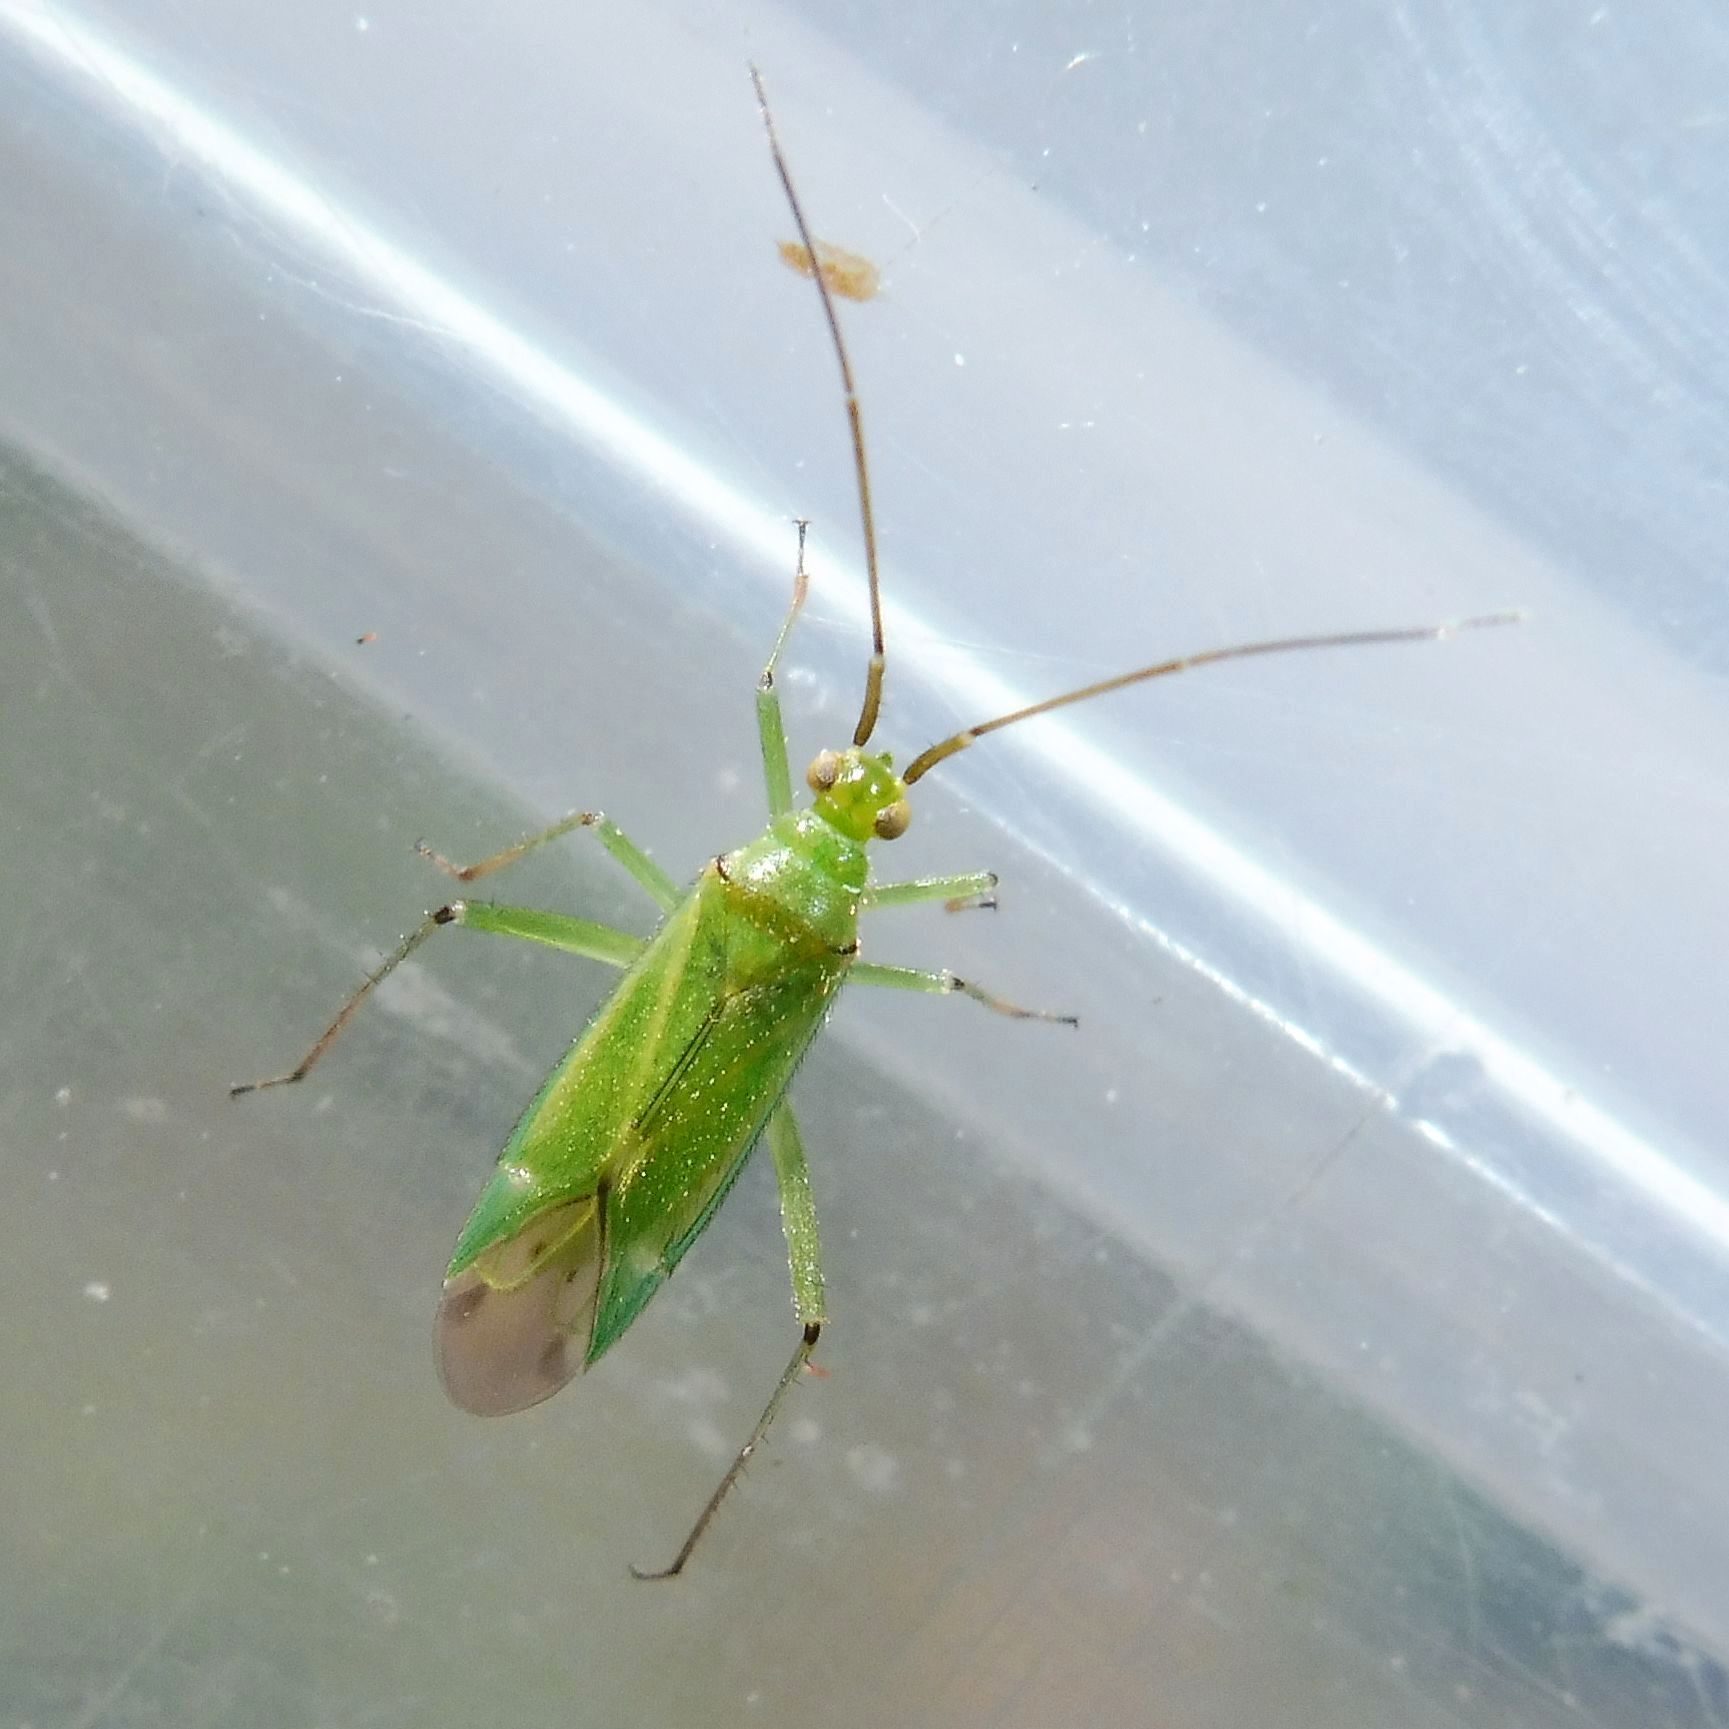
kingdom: Animalia
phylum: Arthropoda
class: Insecta
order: Hemiptera
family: Miridae
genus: Blepharidopterus
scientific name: Blepharidopterus angulatus
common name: Plant bug
